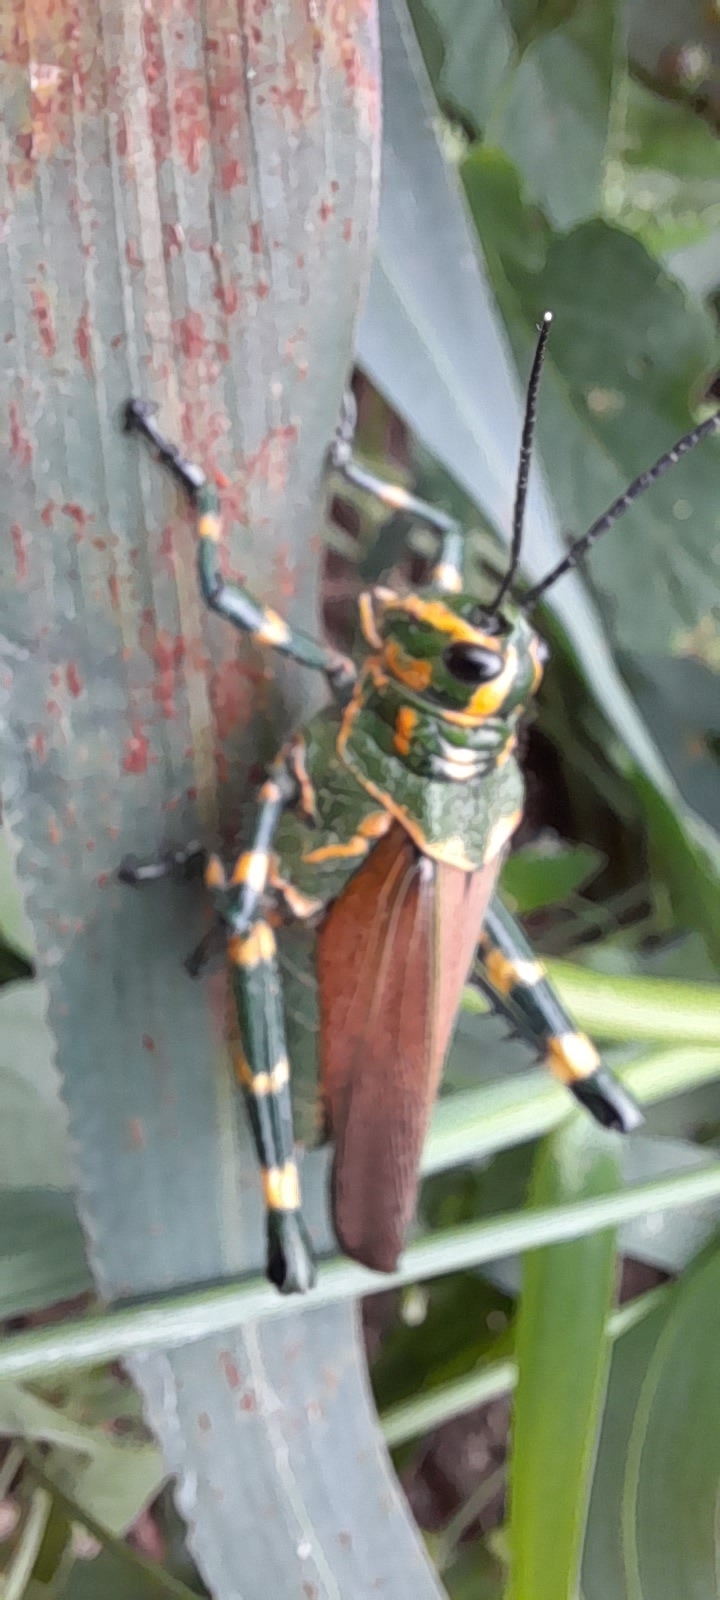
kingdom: Animalia
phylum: Arthropoda
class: Insecta
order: Orthoptera
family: Romaleidae
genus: Chromacris
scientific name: Chromacris speciosa
